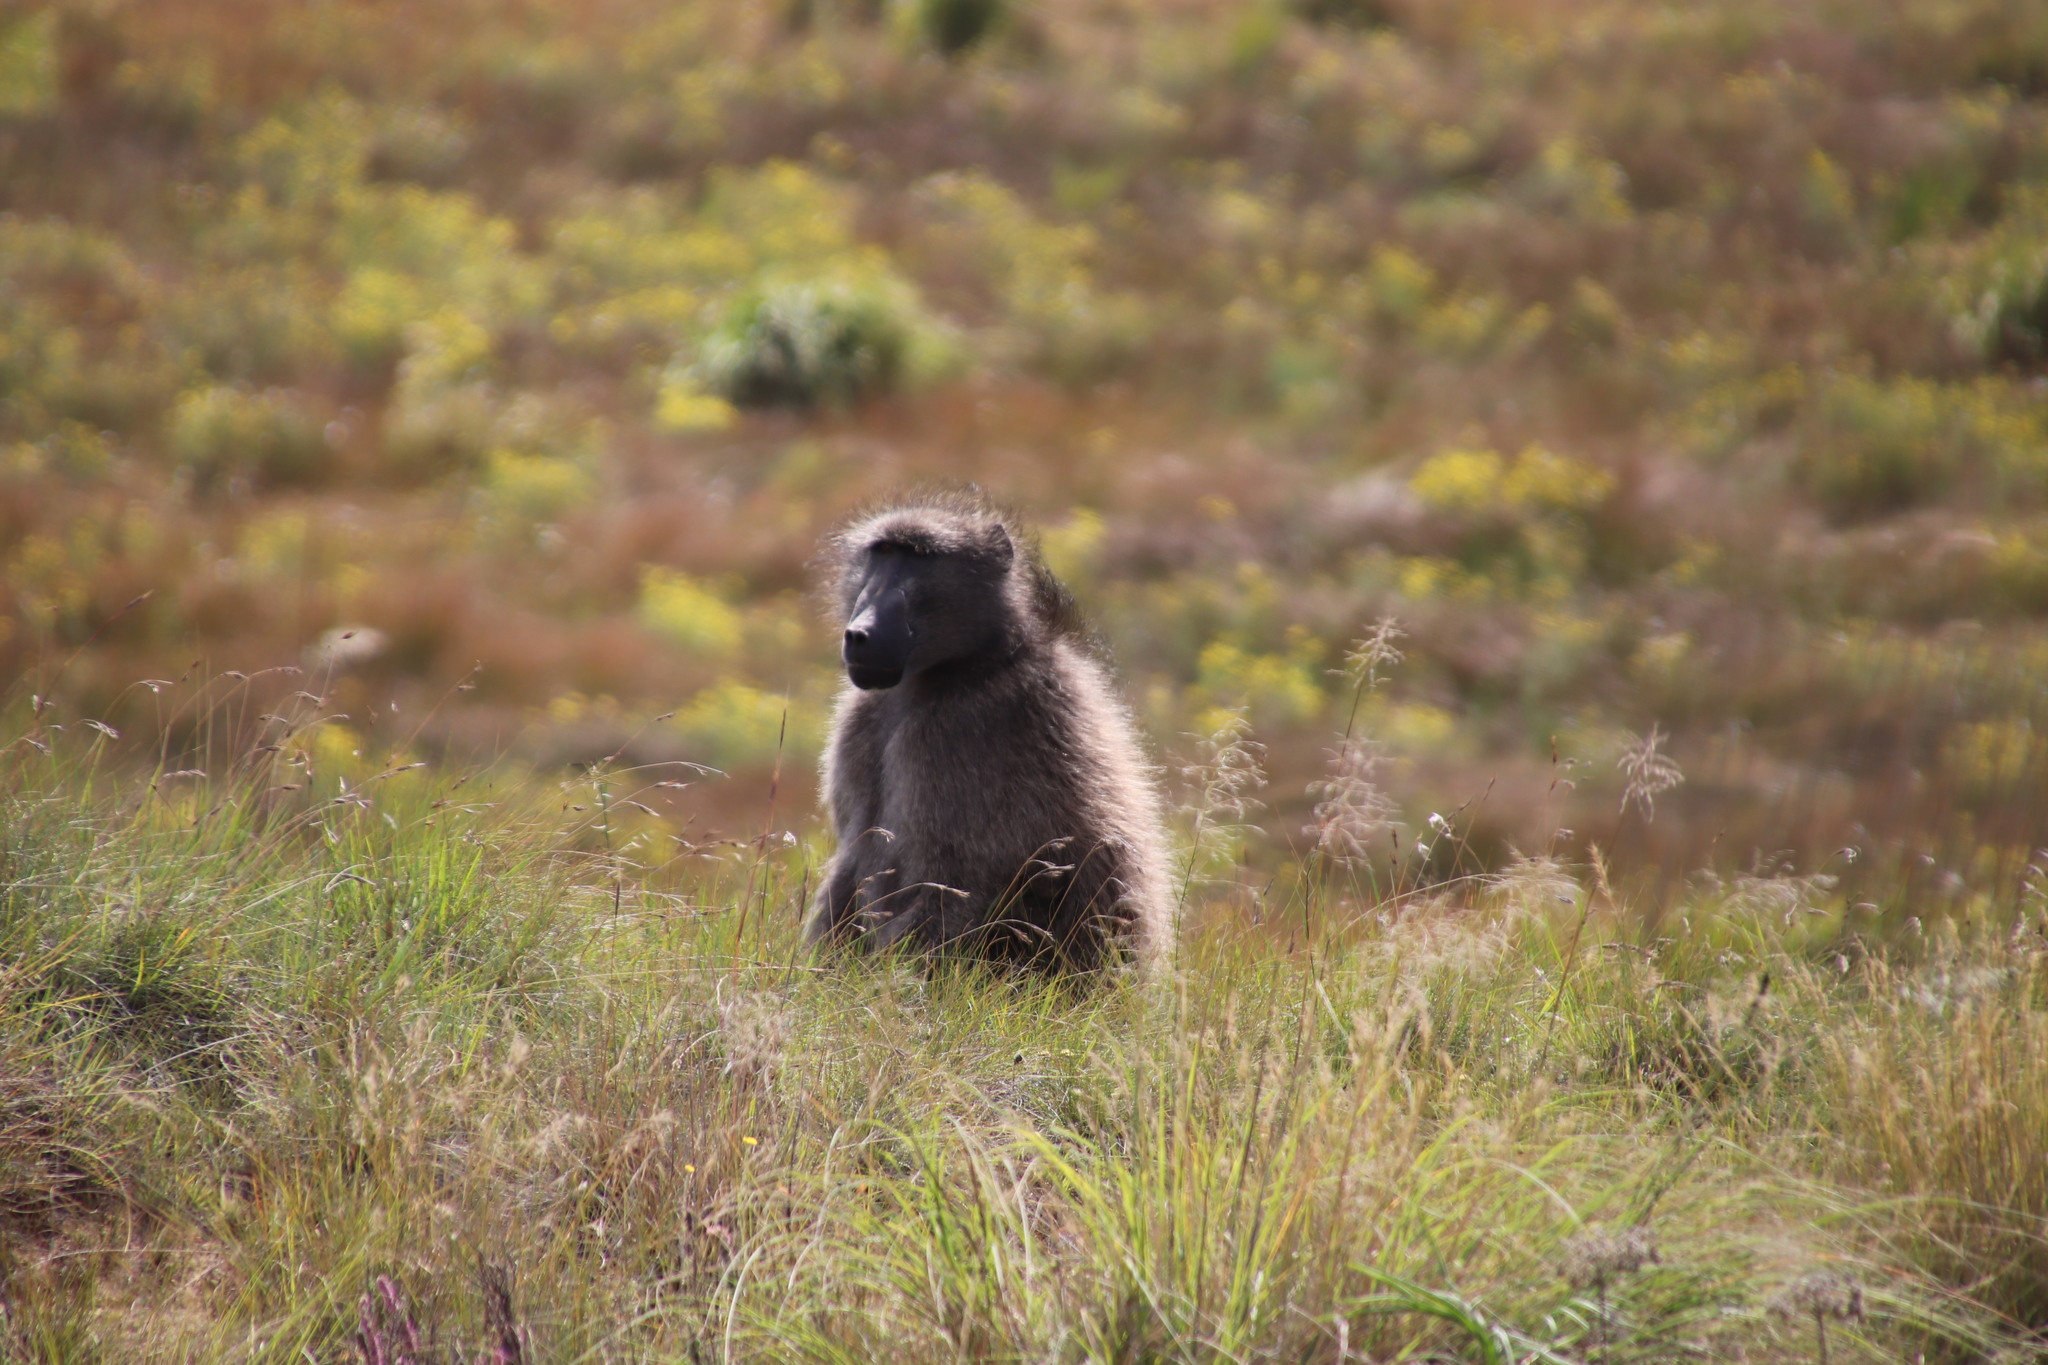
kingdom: Animalia
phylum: Chordata
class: Mammalia
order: Primates
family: Cercopithecidae
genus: Papio
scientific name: Papio ursinus
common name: Chacma baboon
